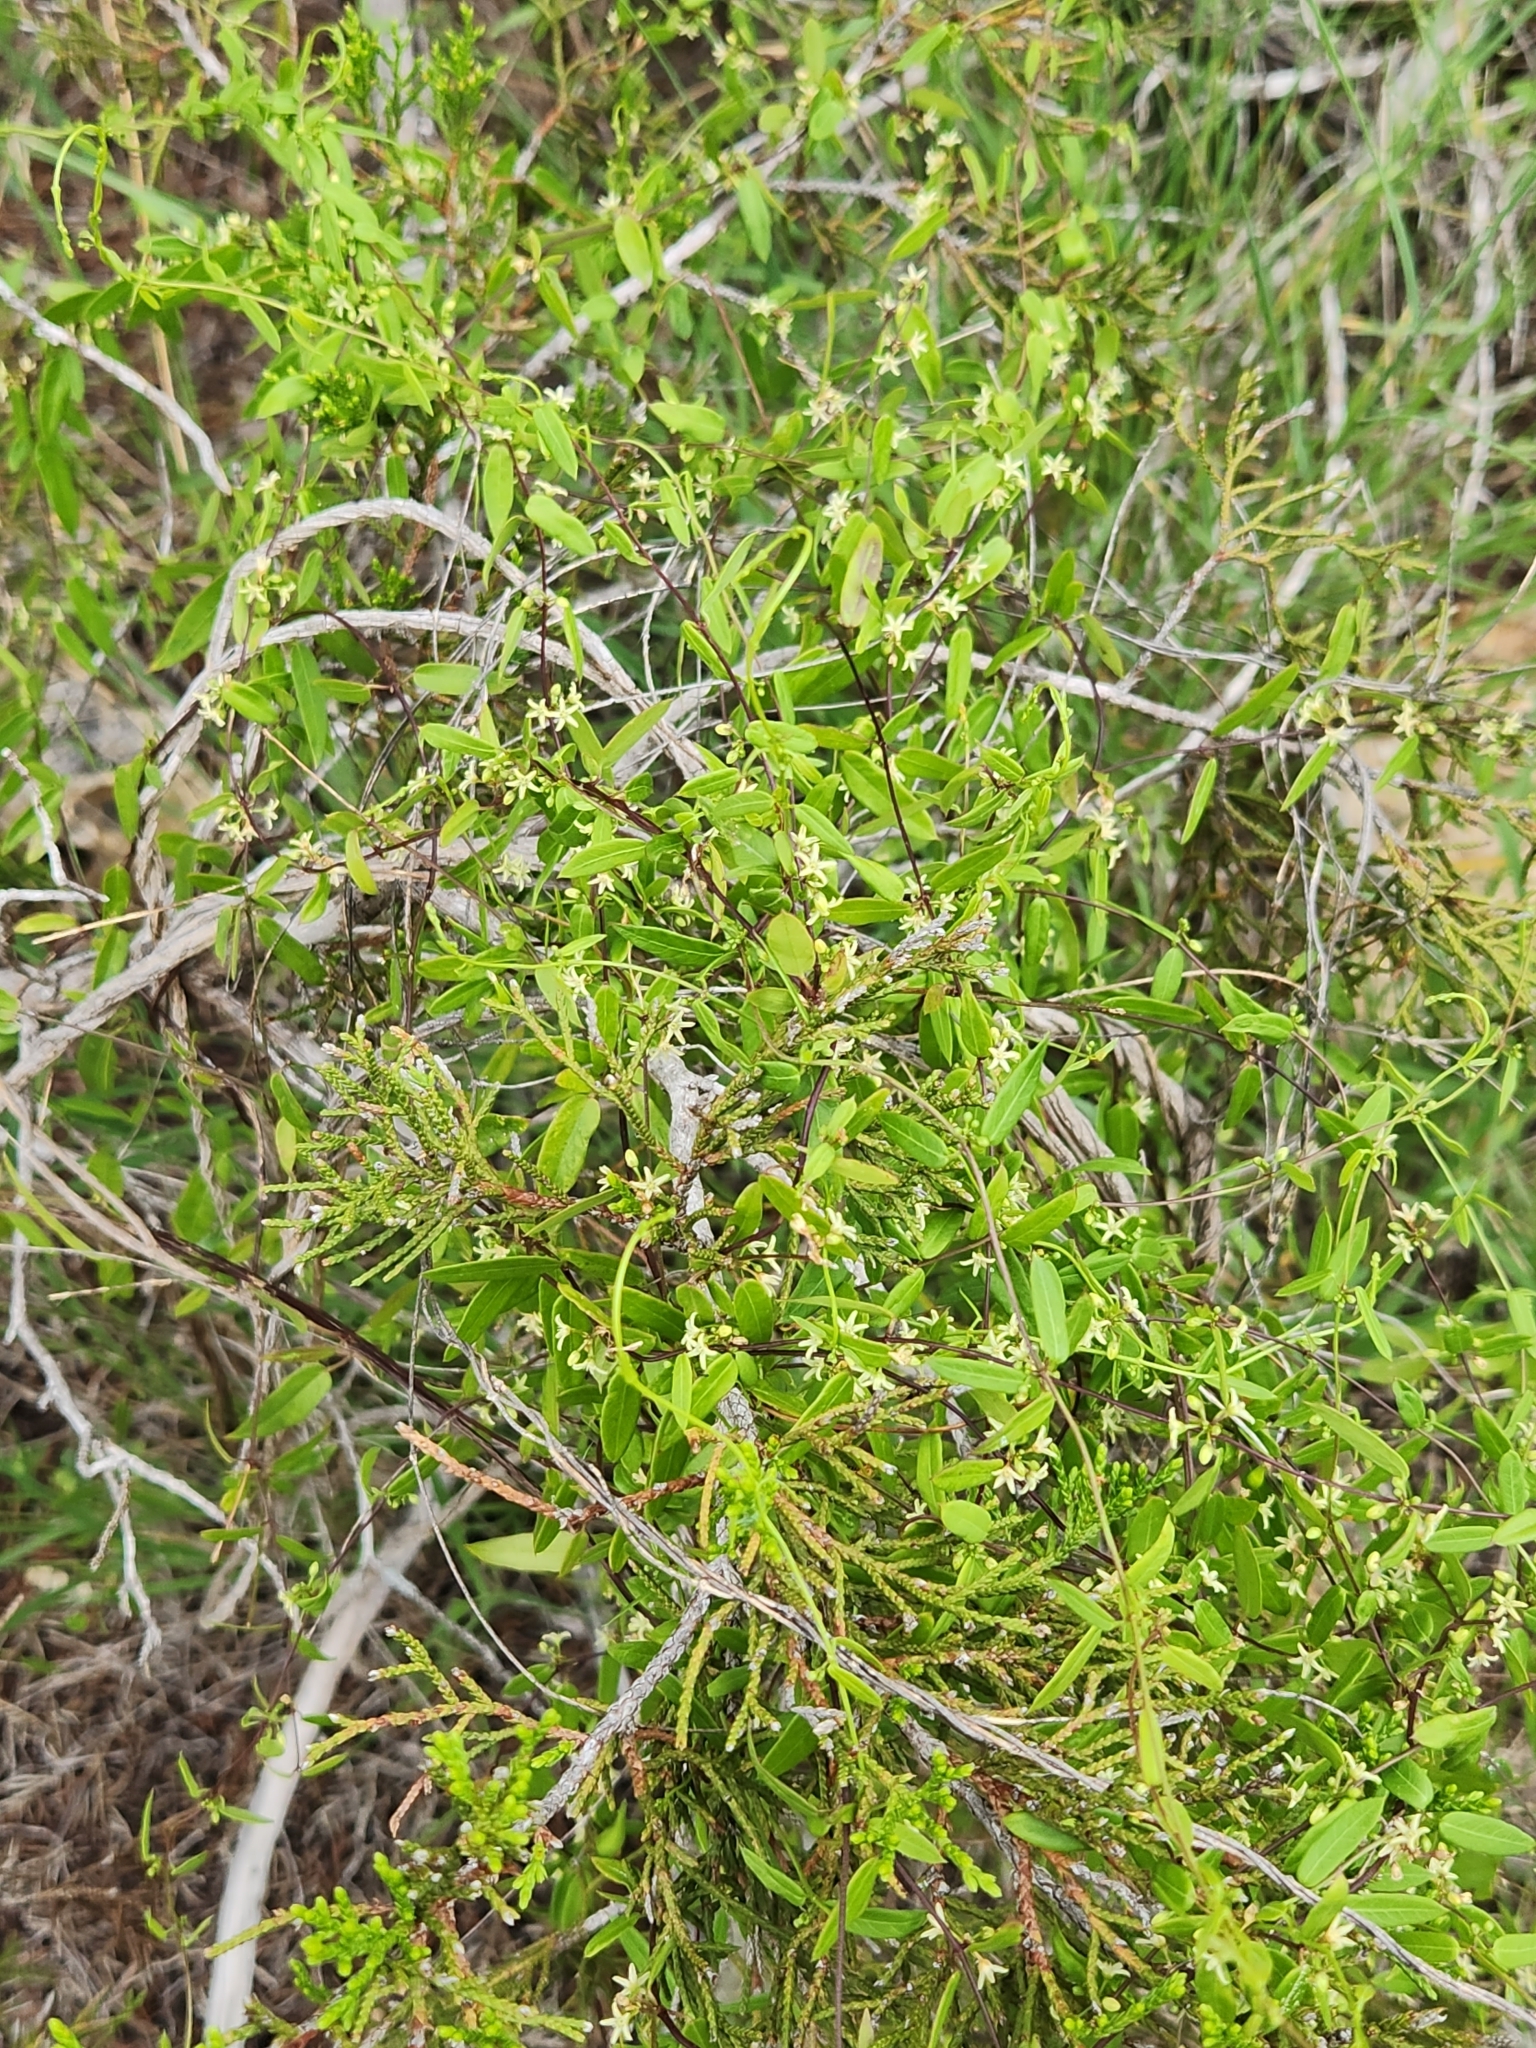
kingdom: Plantae
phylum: Tracheophyta
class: Magnoliopsida
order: Gentianales
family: Apocynaceae
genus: Metastelma
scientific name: Metastelma palmeri
